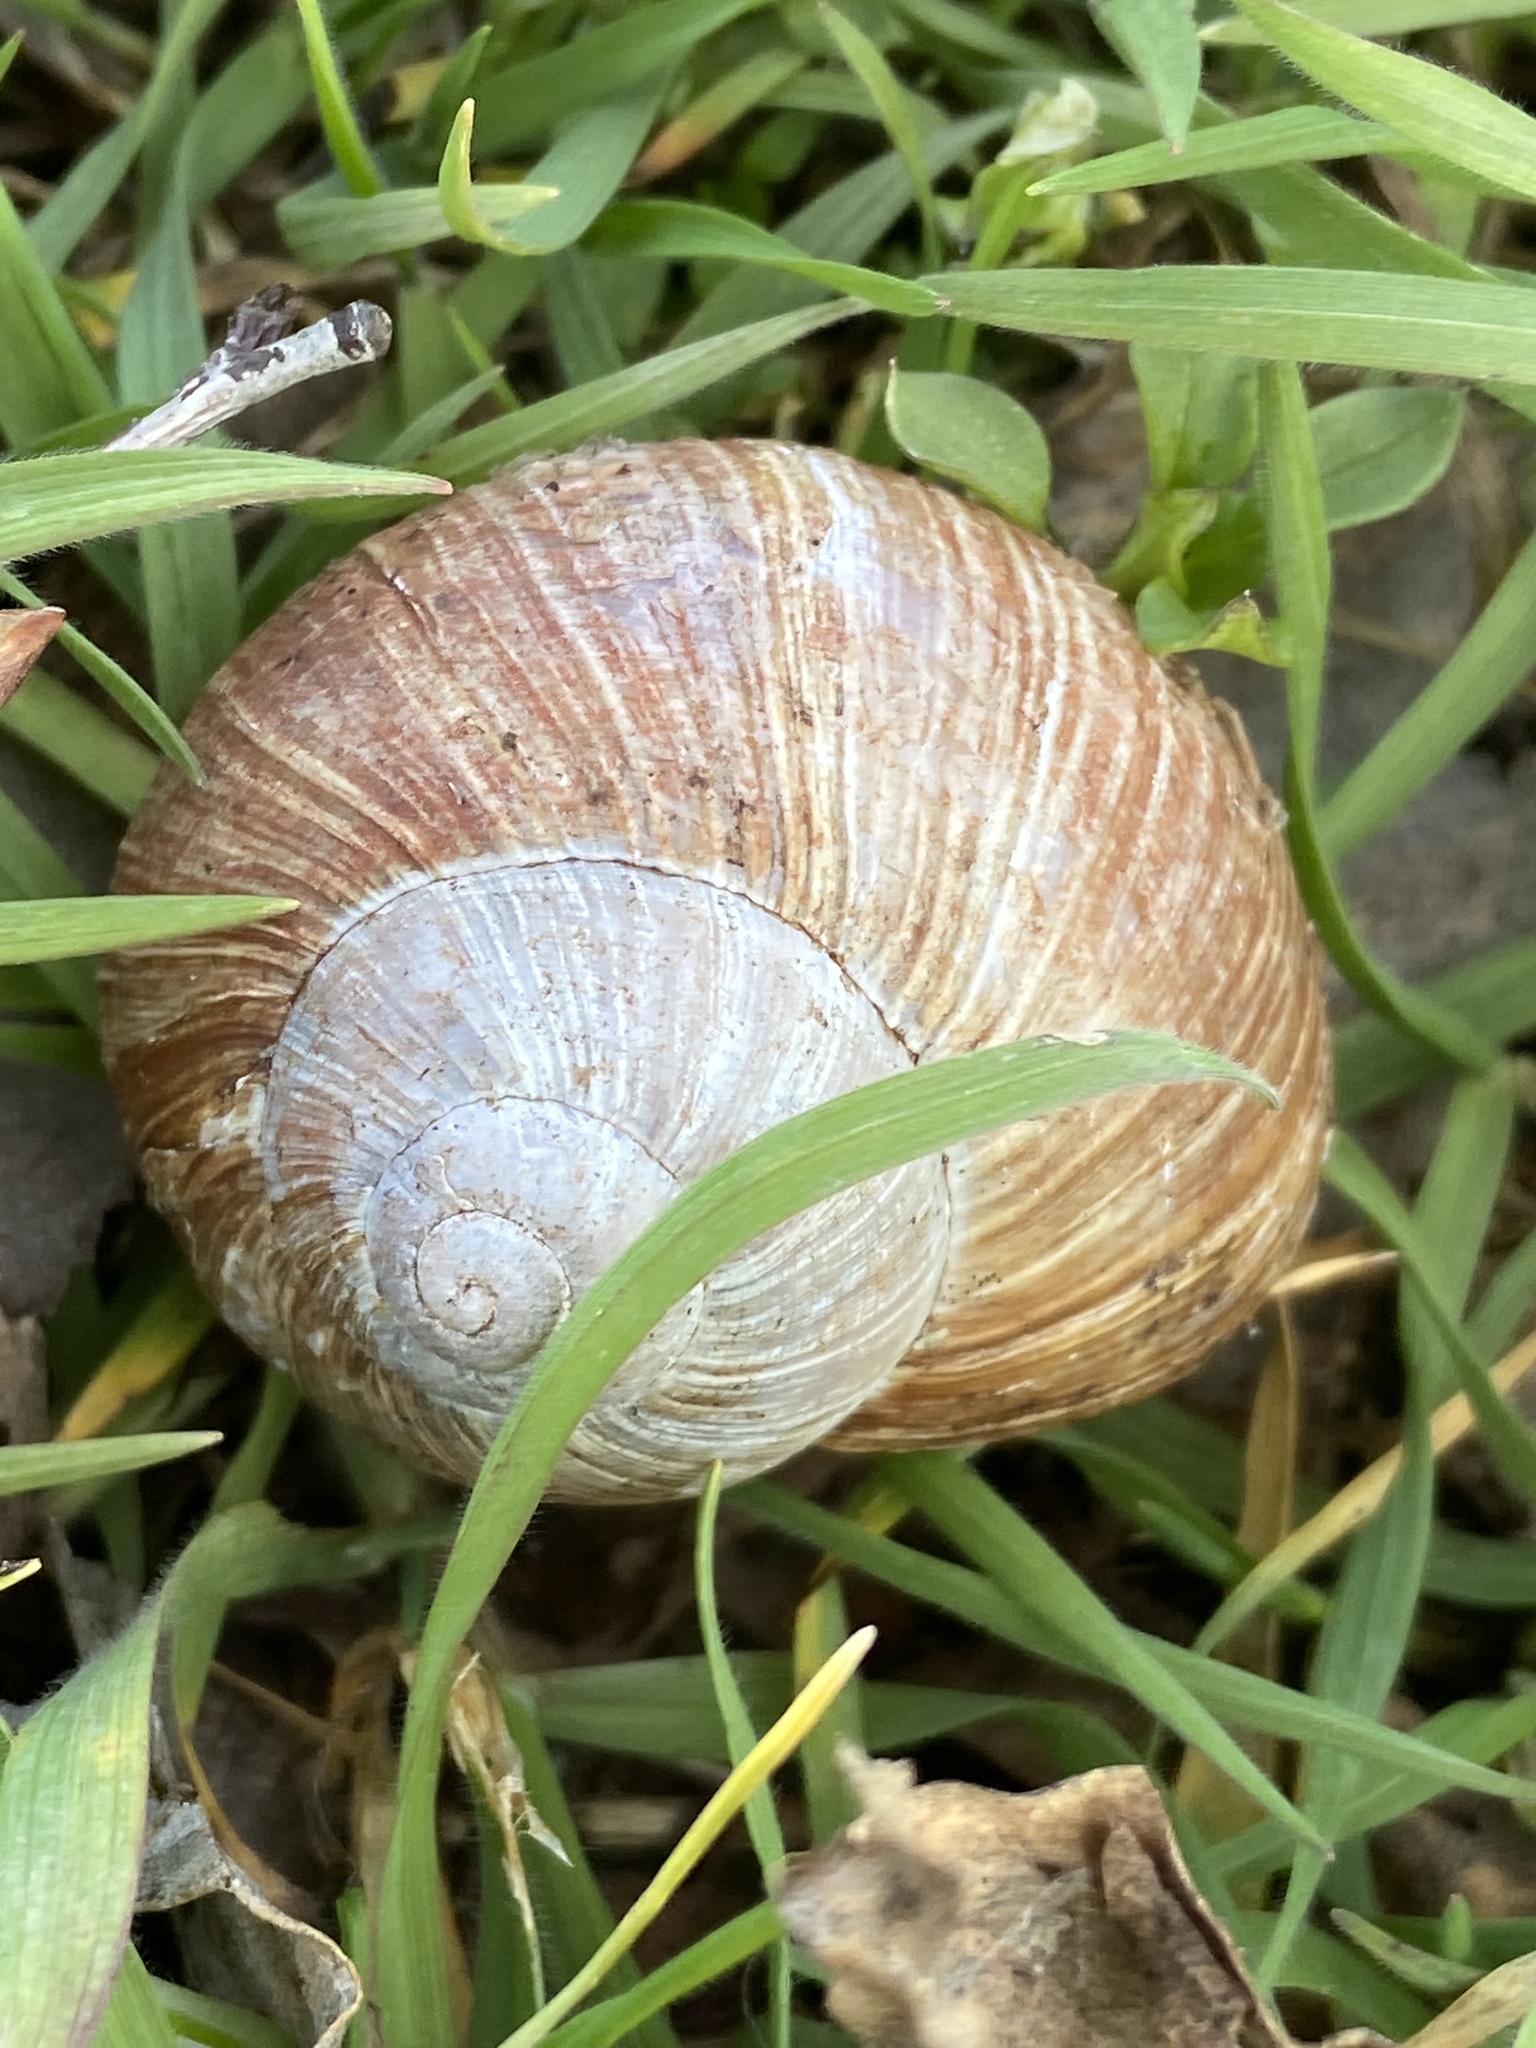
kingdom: Animalia
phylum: Mollusca
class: Gastropoda
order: Stylommatophora
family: Helicidae
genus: Helix
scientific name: Helix pomatia
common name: Roman snail
